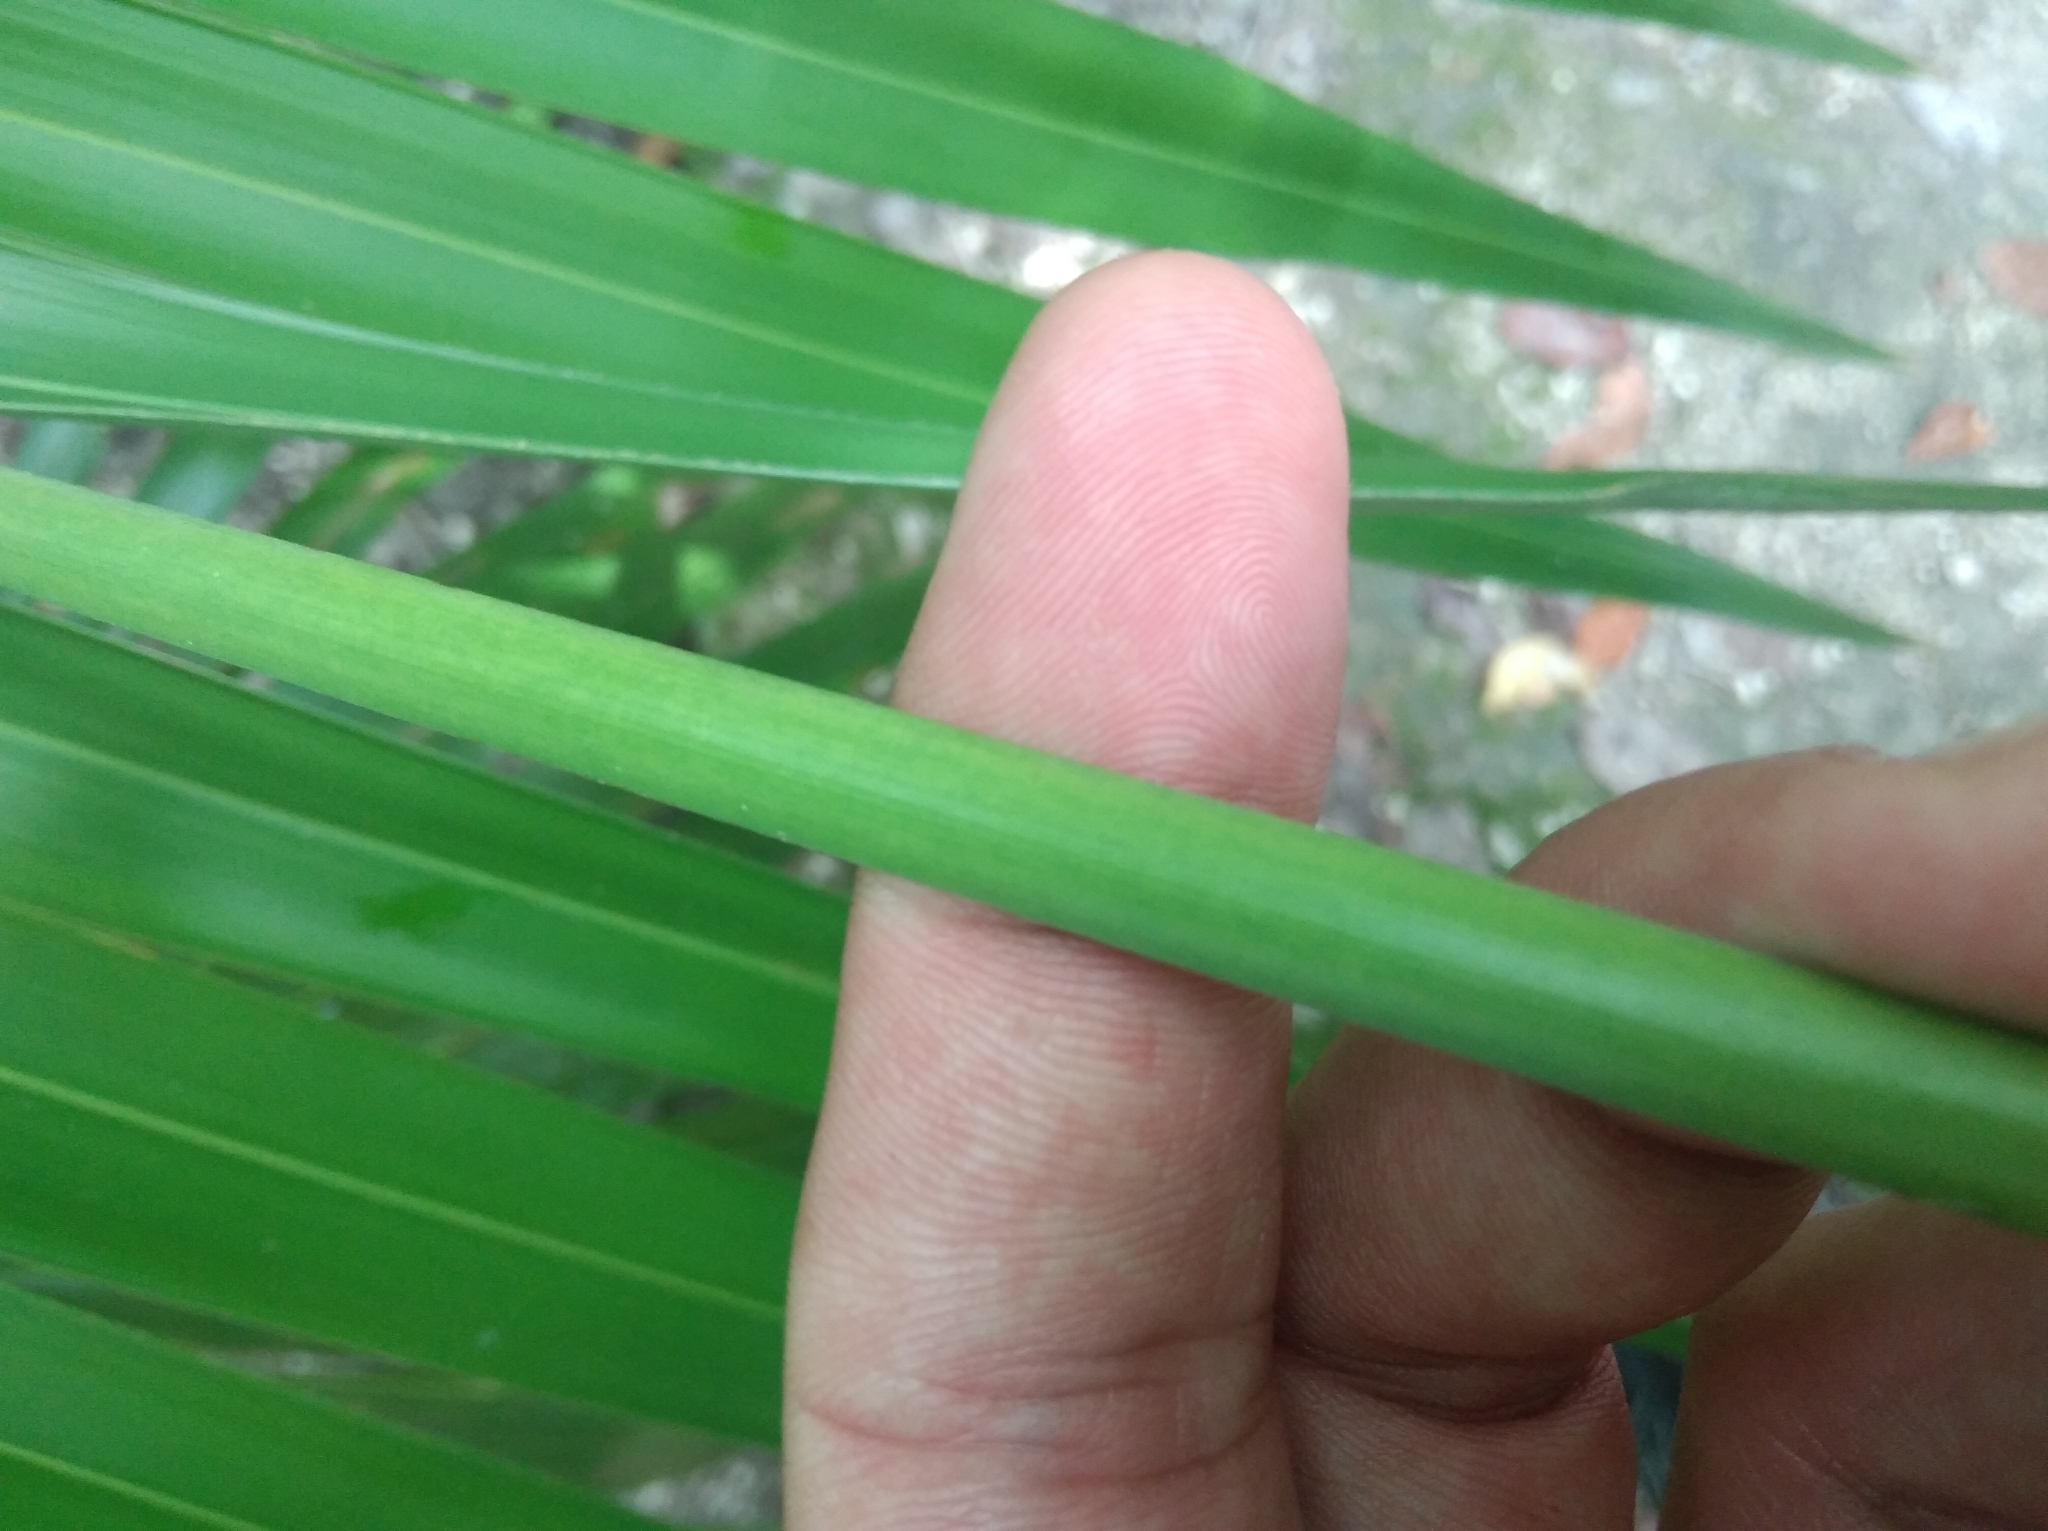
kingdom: Plantae
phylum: Tracheophyta
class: Liliopsida
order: Arecales
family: Arecaceae
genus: Thrinax
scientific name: Thrinax radiata
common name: Florida thatch
